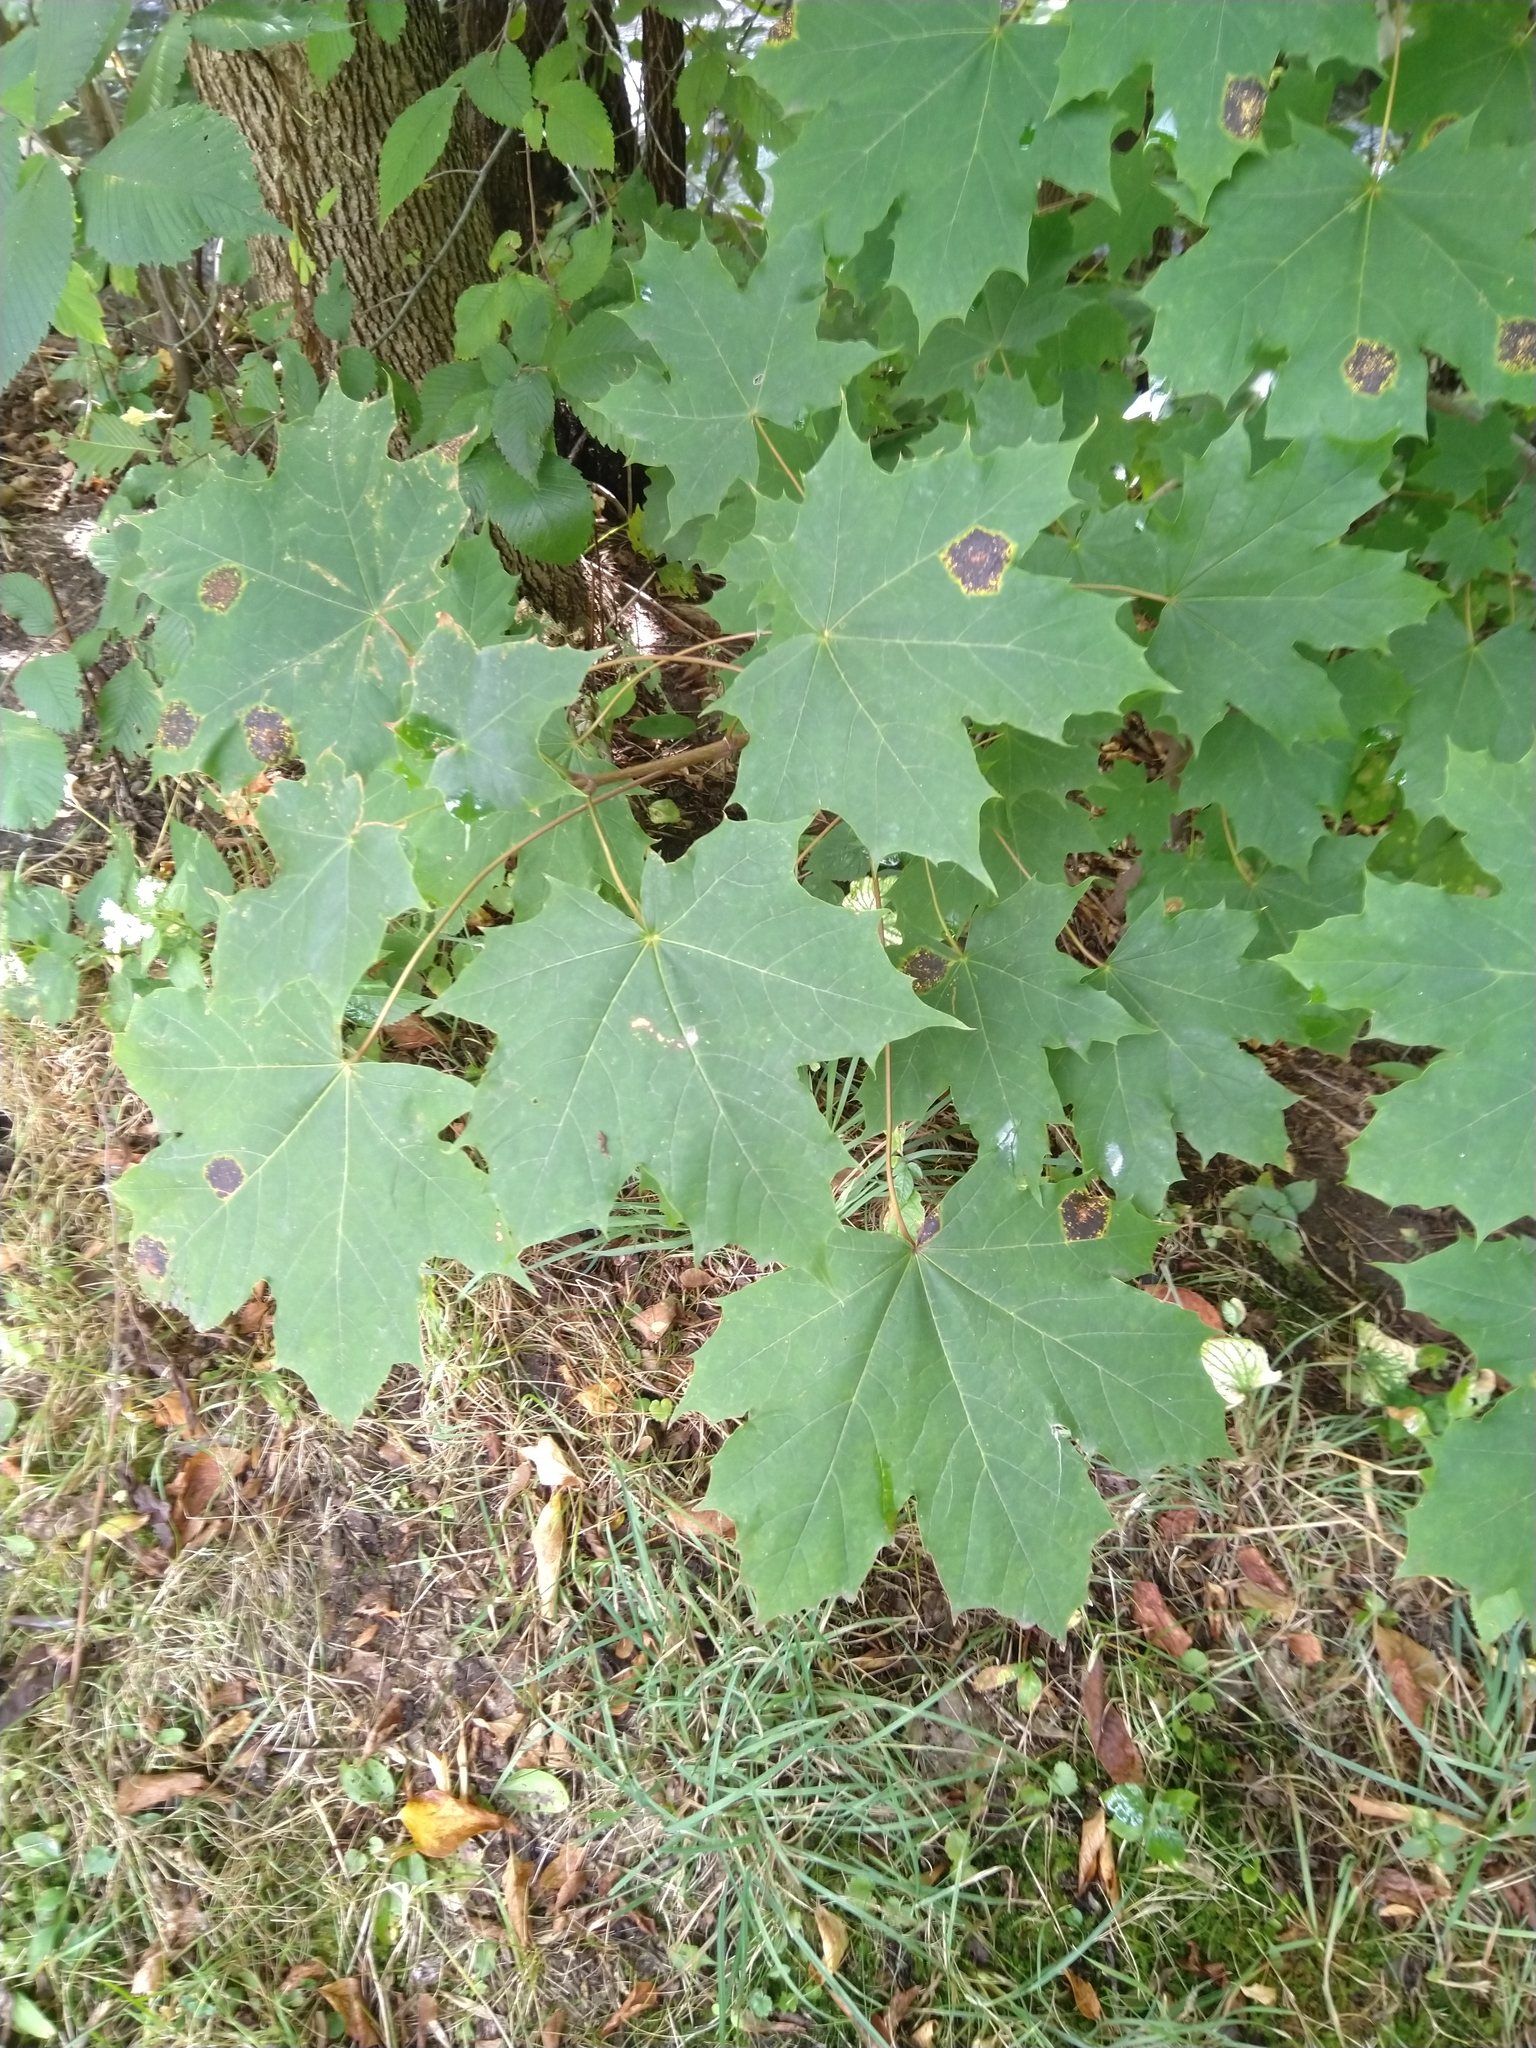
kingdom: Fungi
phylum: Ascomycota
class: Leotiomycetes
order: Rhytismatales
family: Rhytismataceae
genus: Rhytisma
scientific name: Rhytisma acerinum
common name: European tar spot
